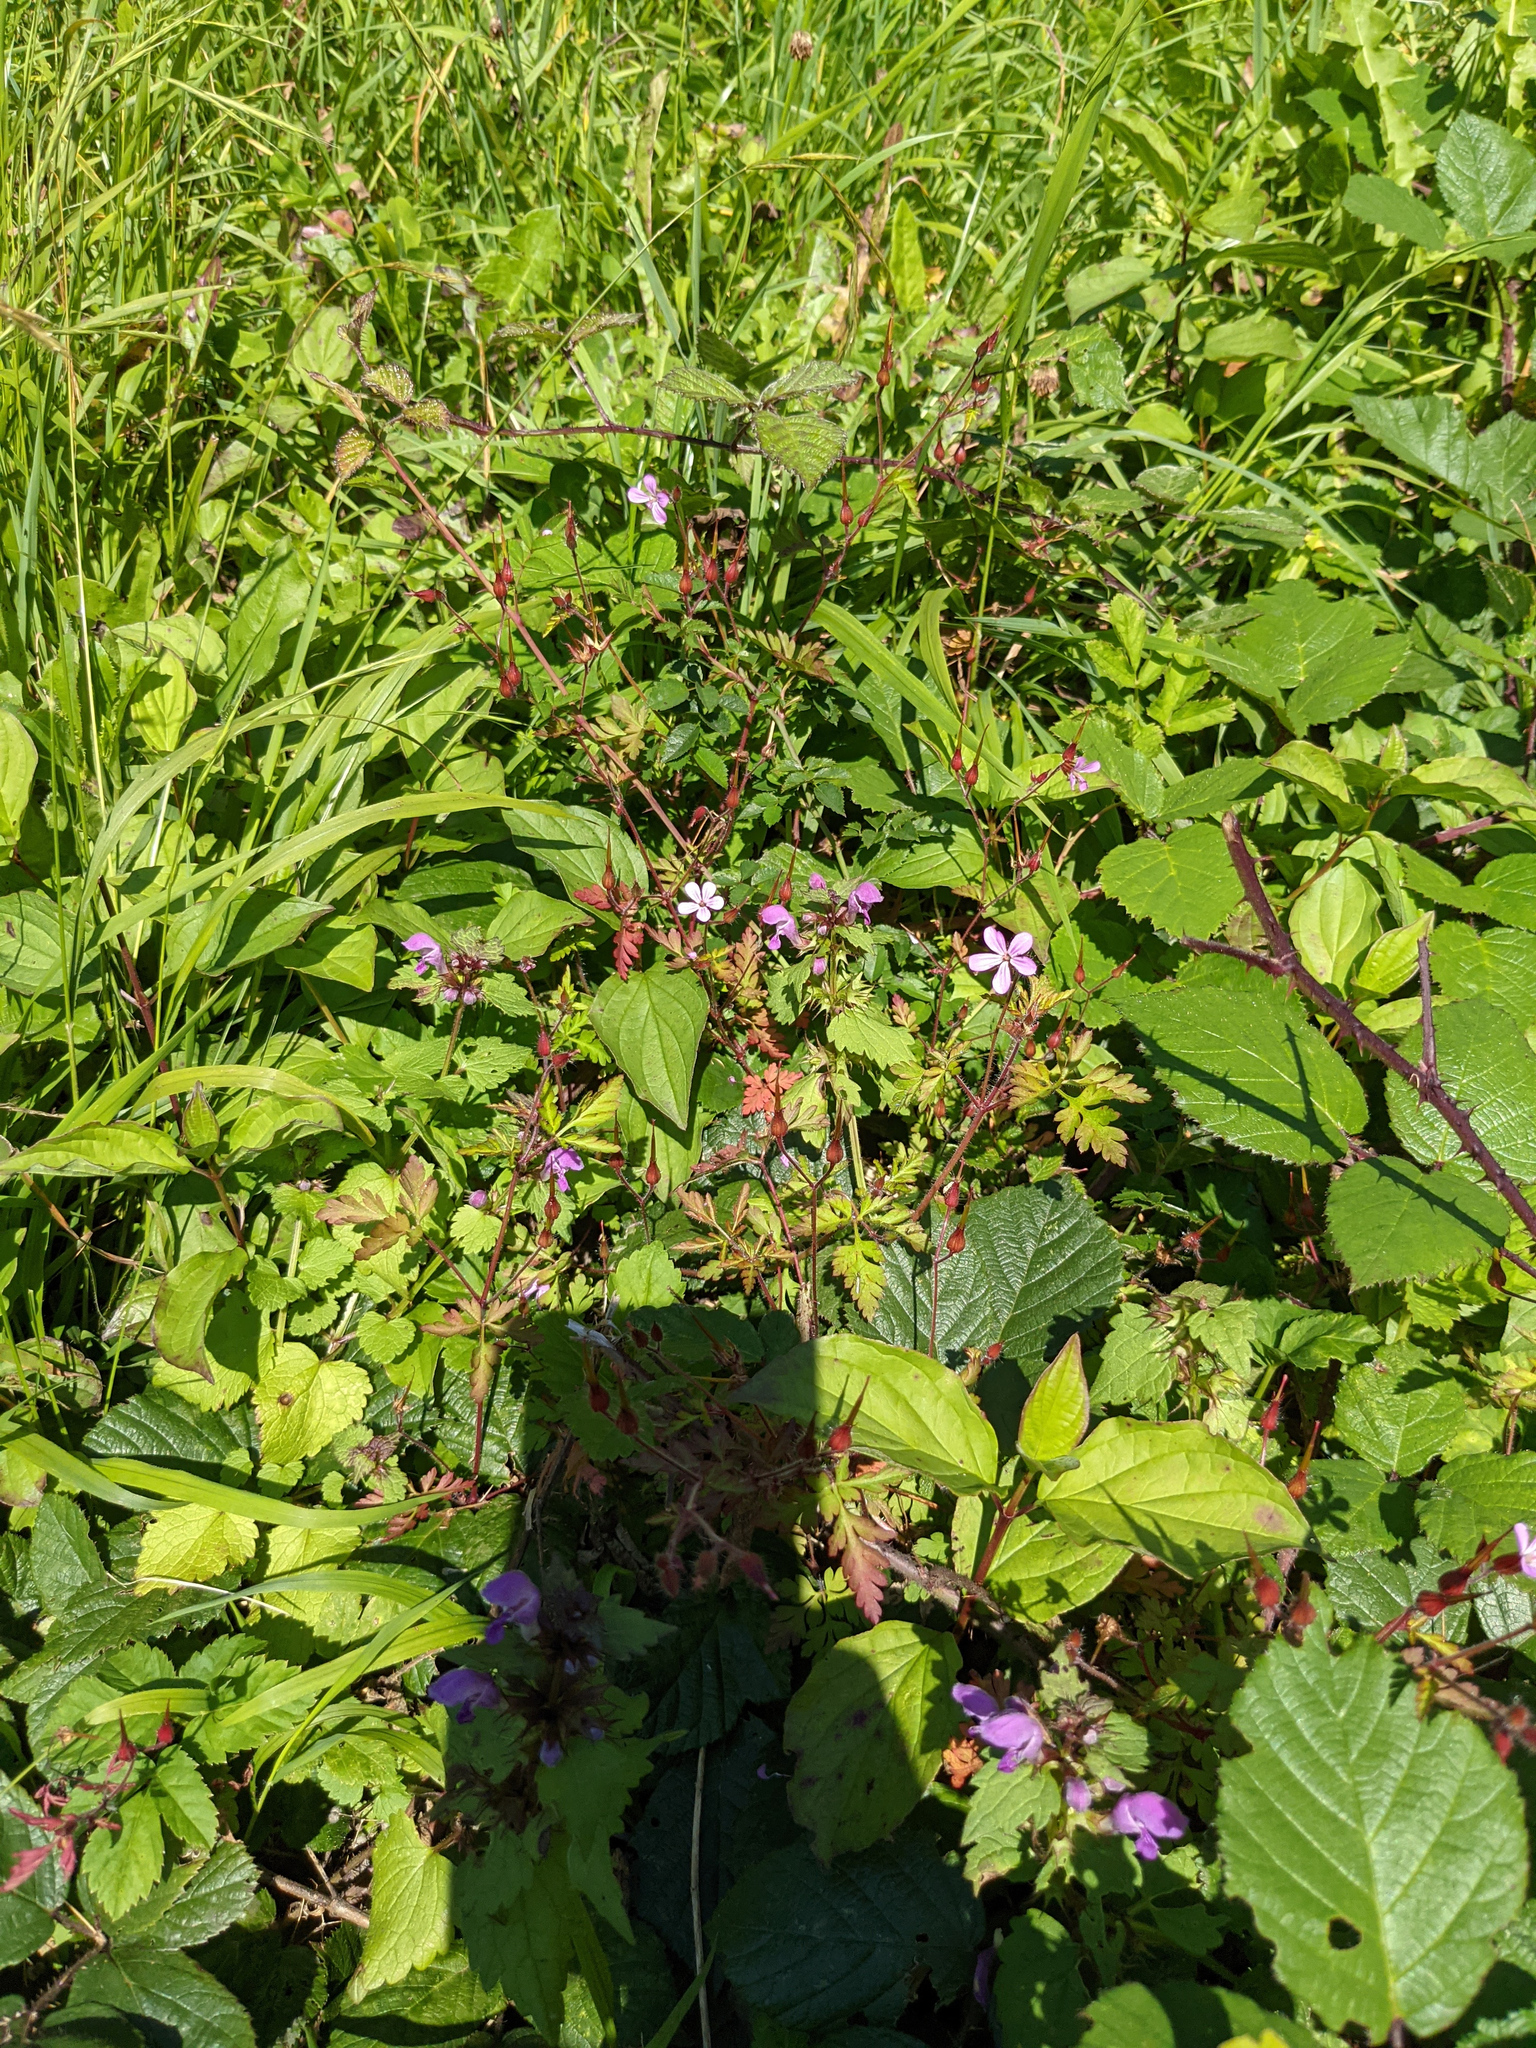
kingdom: Plantae
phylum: Tracheophyta
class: Magnoliopsida
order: Geraniales
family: Geraniaceae
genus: Geranium
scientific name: Geranium robertianum
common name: Herb-robert
